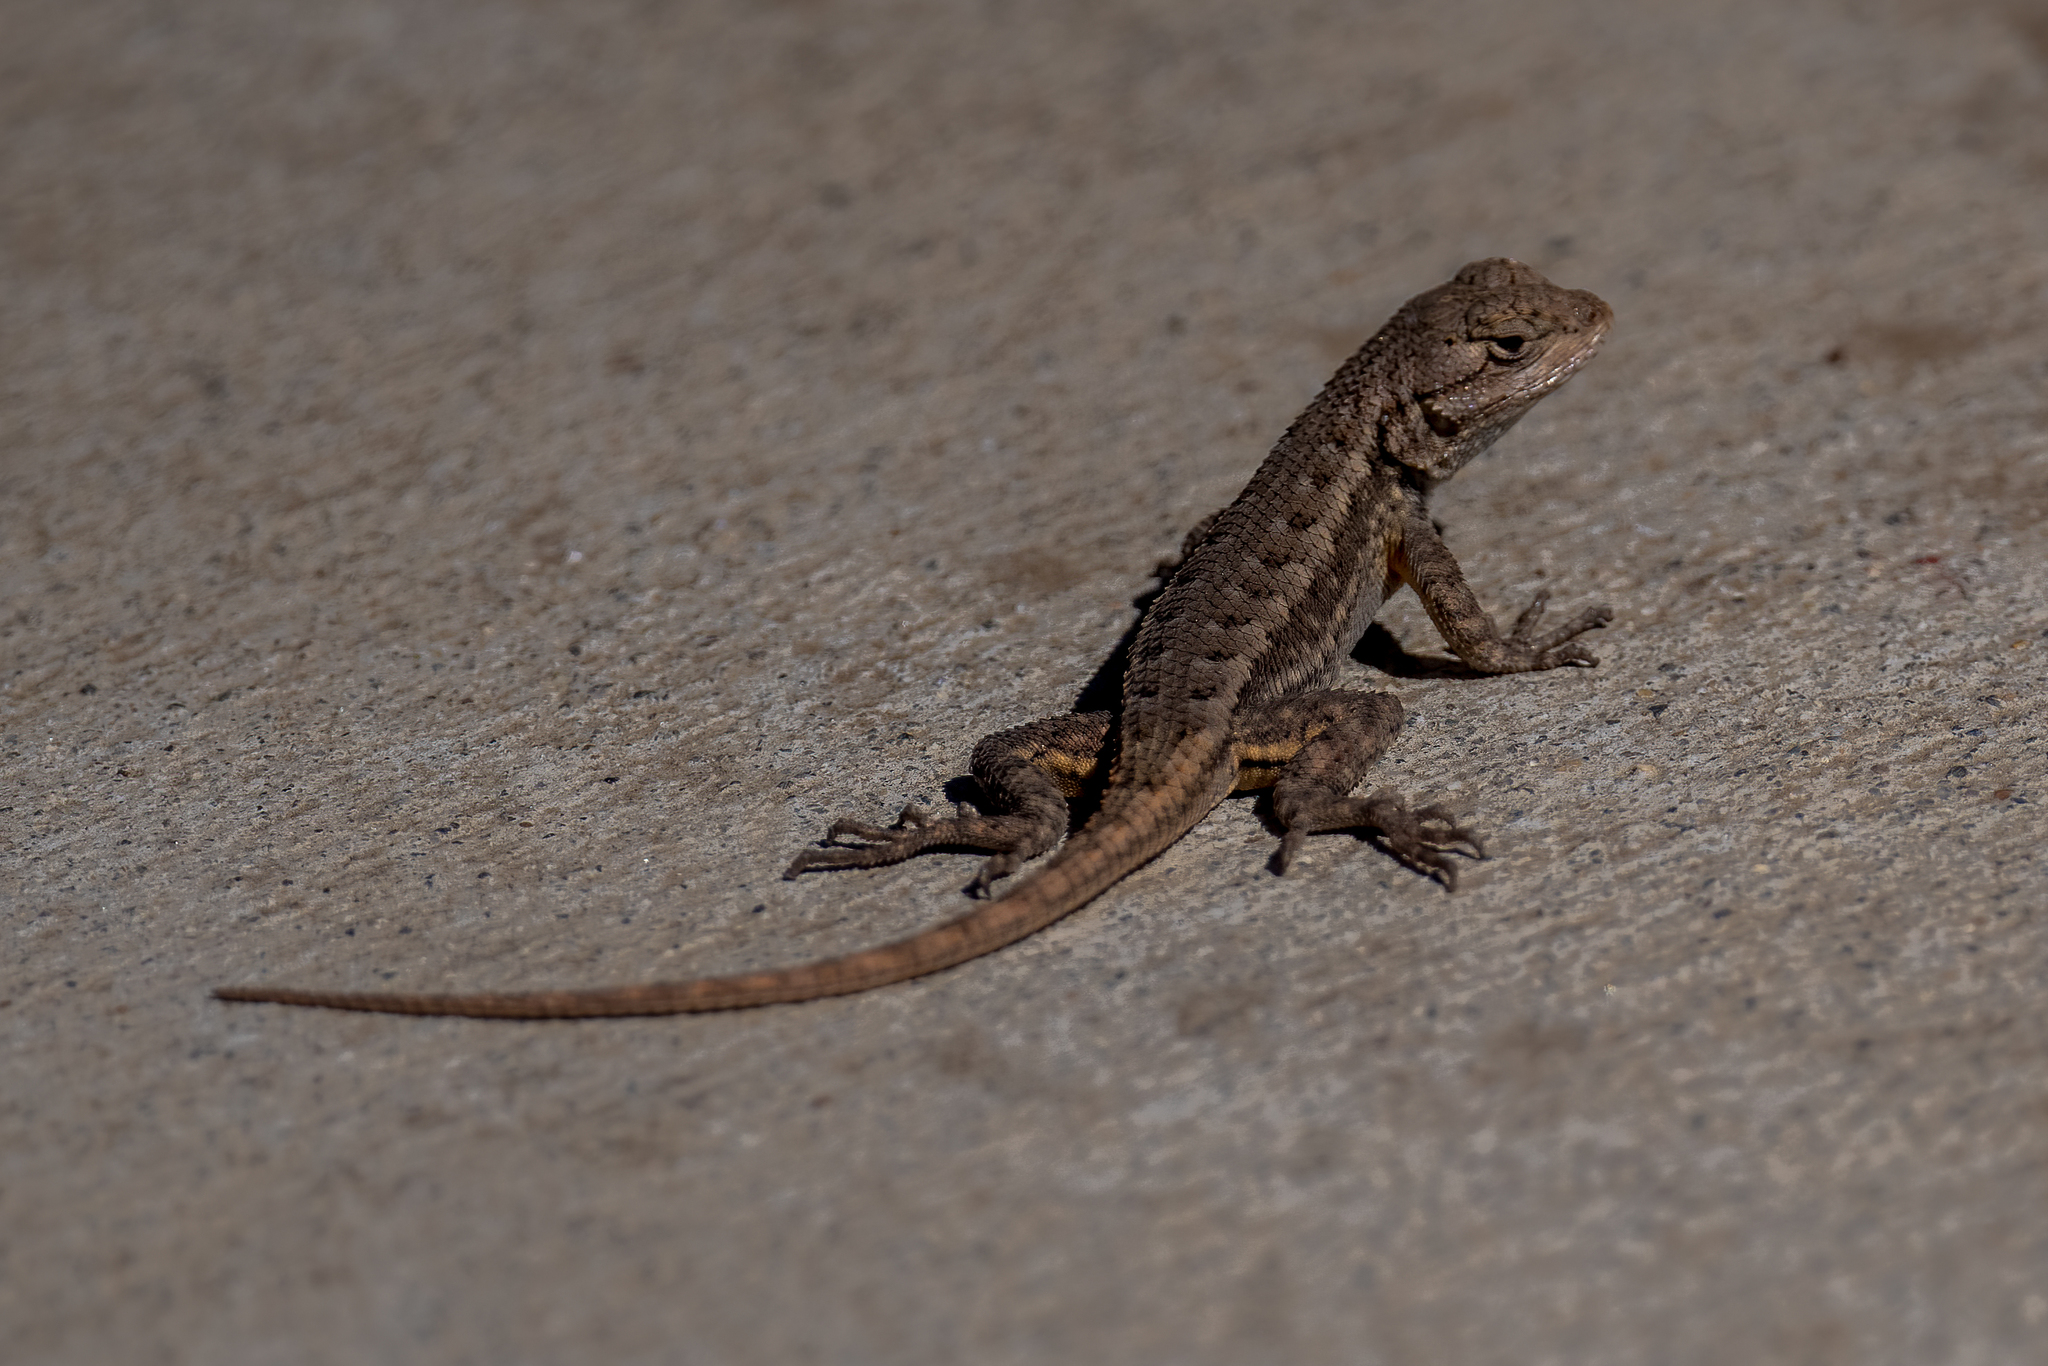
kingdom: Animalia
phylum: Chordata
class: Squamata
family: Phrynosomatidae
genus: Sceloporus
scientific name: Sceloporus occidentalis
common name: Western fence lizard
